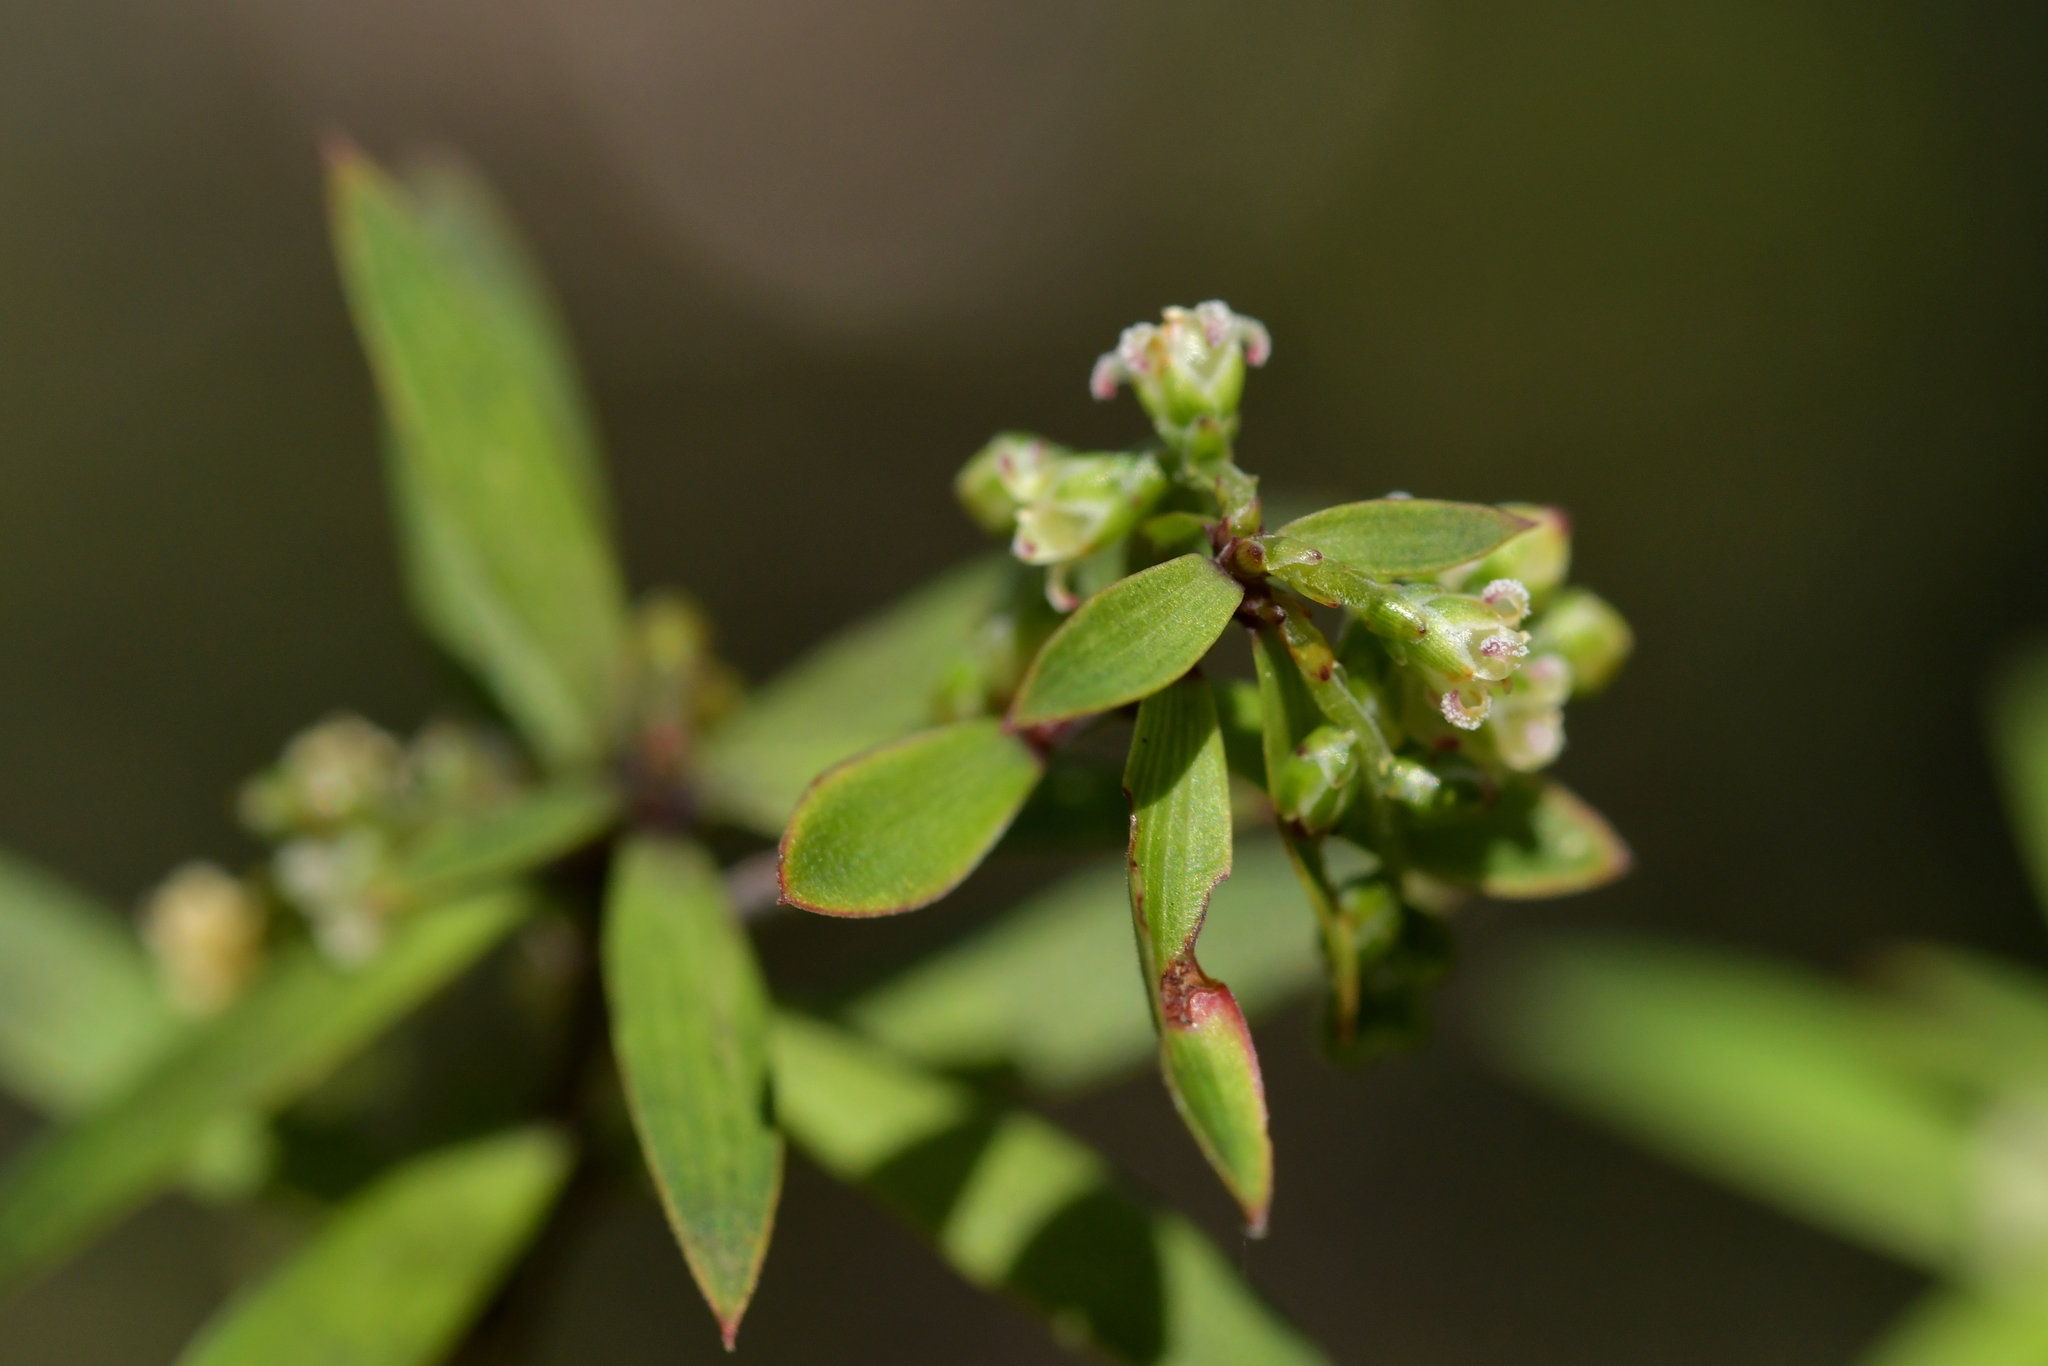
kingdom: Plantae
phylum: Tracheophyta
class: Magnoliopsida
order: Ericales
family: Ericaceae
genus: Leucopogon
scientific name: Leucopogon fasciculatus
